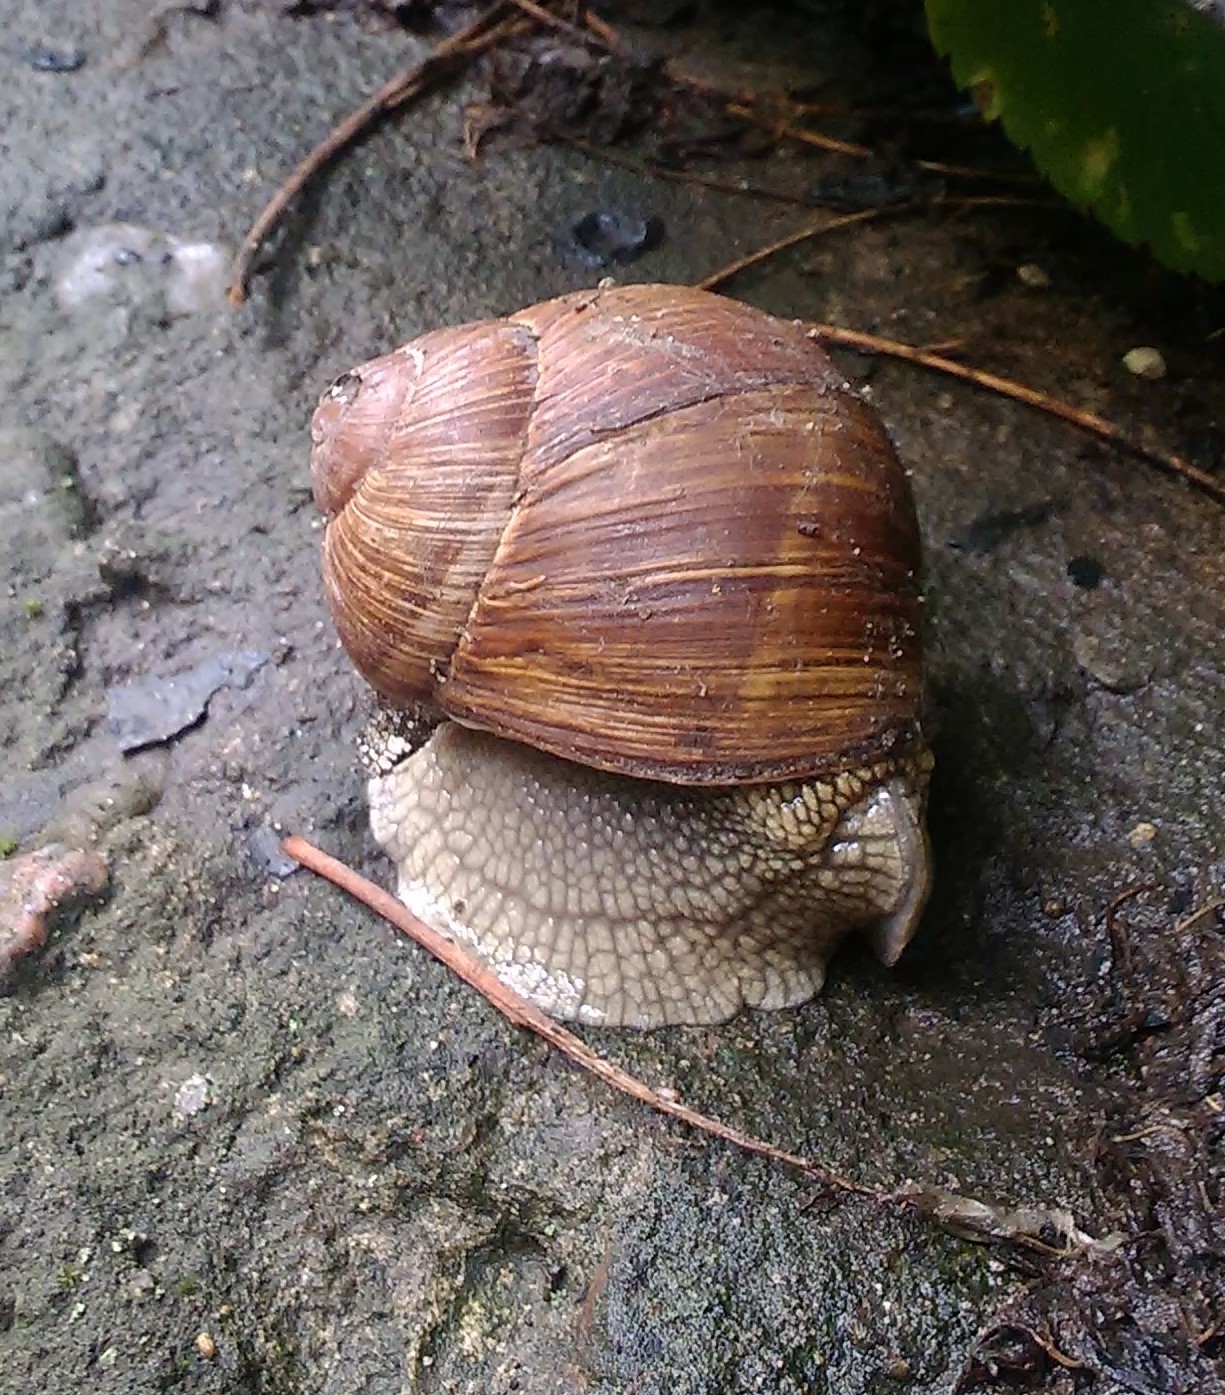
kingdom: Animalia
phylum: Mollusca
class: Gastropoda
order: Stylommatophora
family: Helicidae
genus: Helix
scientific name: Helix pomatia
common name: Roman snail
